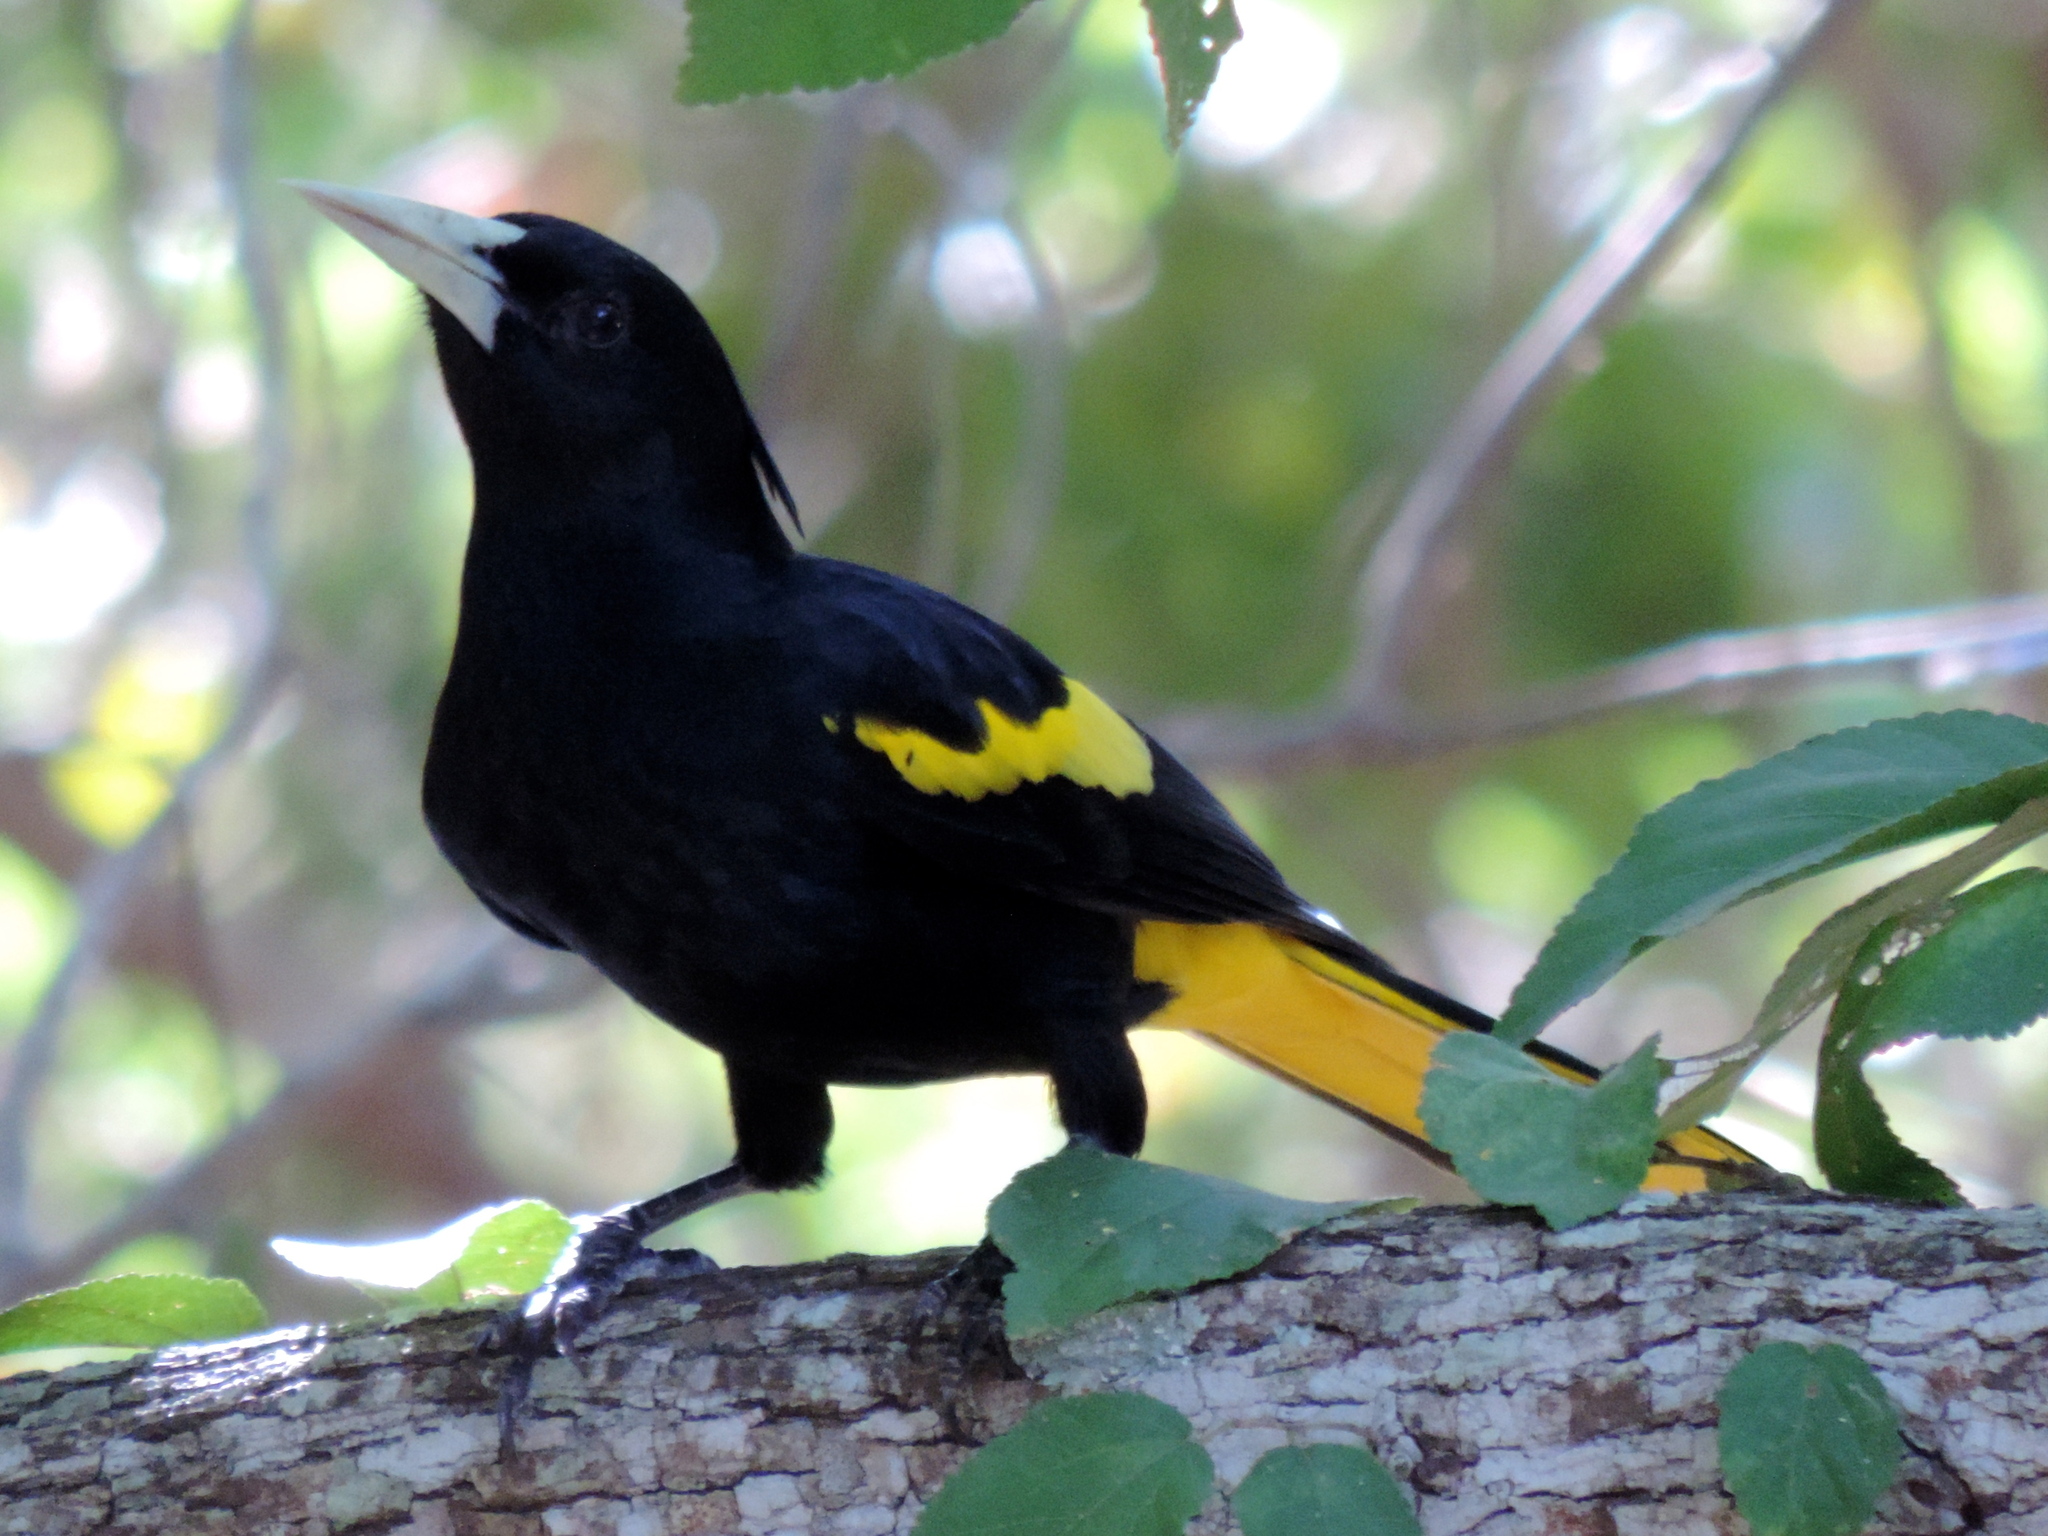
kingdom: Animalia
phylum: Chordata
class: Aves
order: Passeriformes
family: Icteridae
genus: Cacicus
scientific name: Cacicus melanicterus
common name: Yellow-winged cacique
